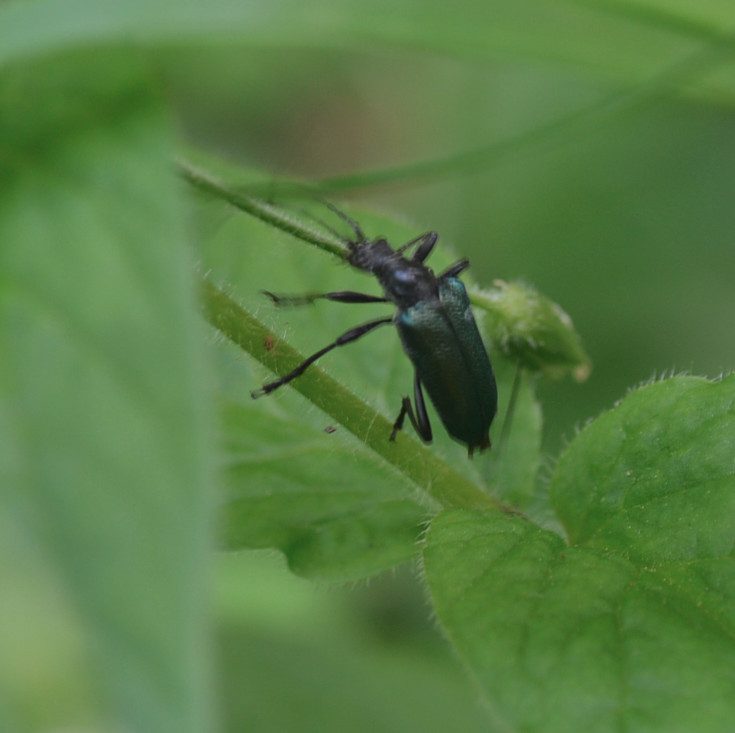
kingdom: Animalia
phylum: Arthropoda
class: Insecta
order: Coleoptera
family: Cerambycidae
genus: Gaurotes
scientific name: Gaurotes virginea
